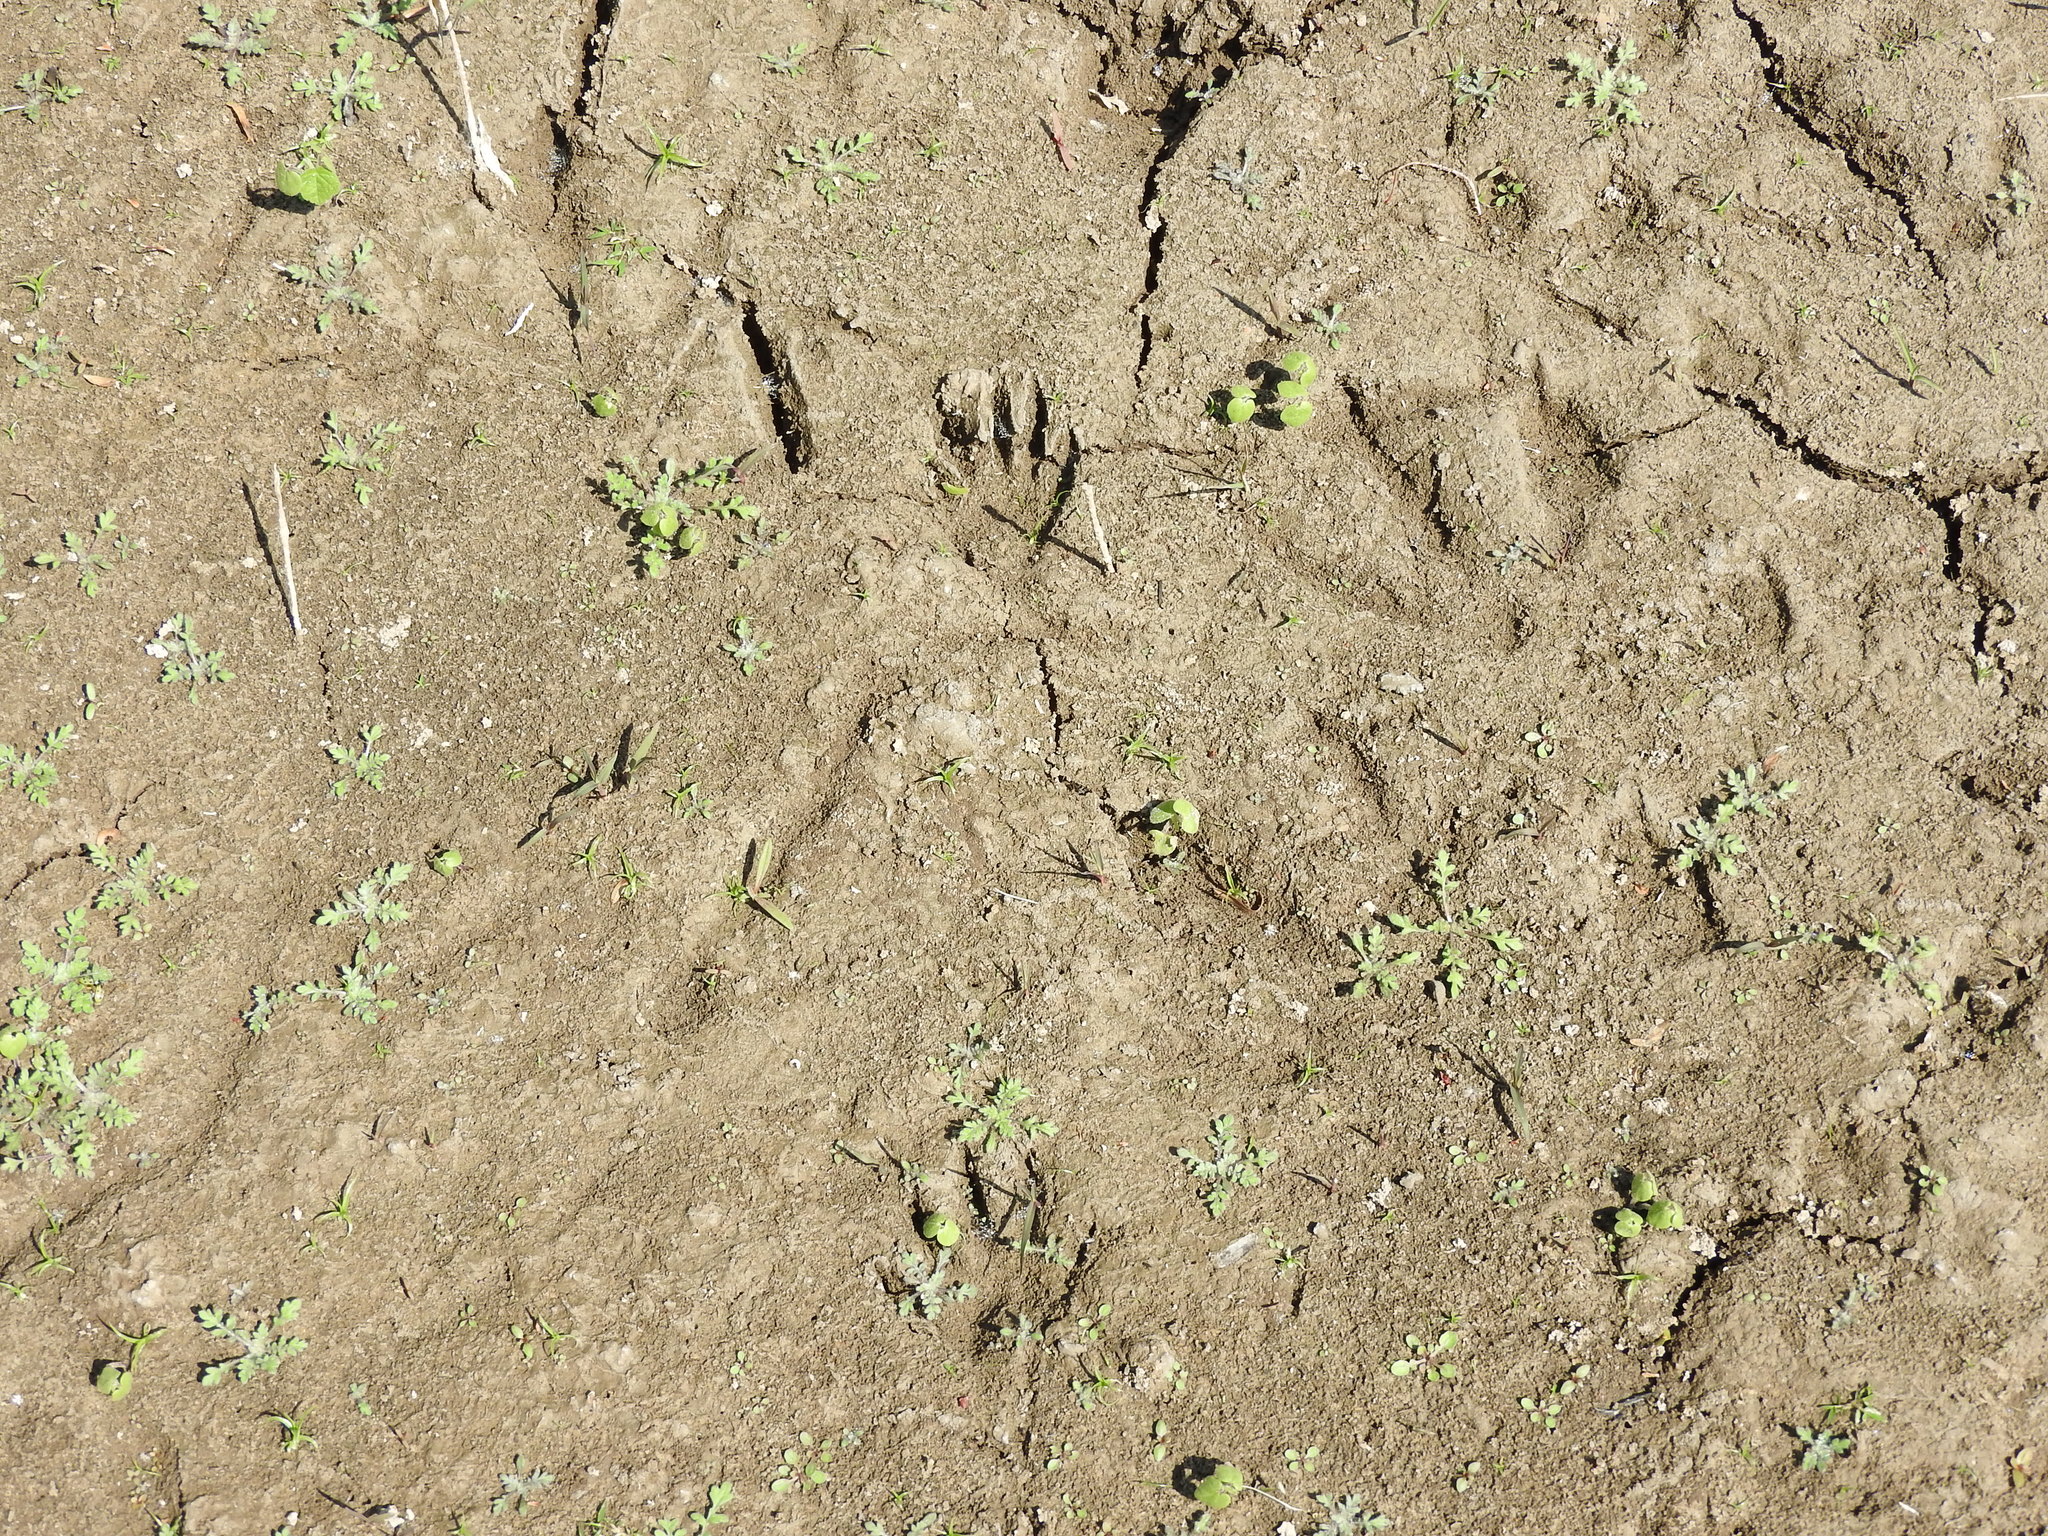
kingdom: Animalia
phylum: Chordata
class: Mammalia
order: Carnivora
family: Procyonidae
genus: Procyon
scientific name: Procyon lotor
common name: Raccoon
